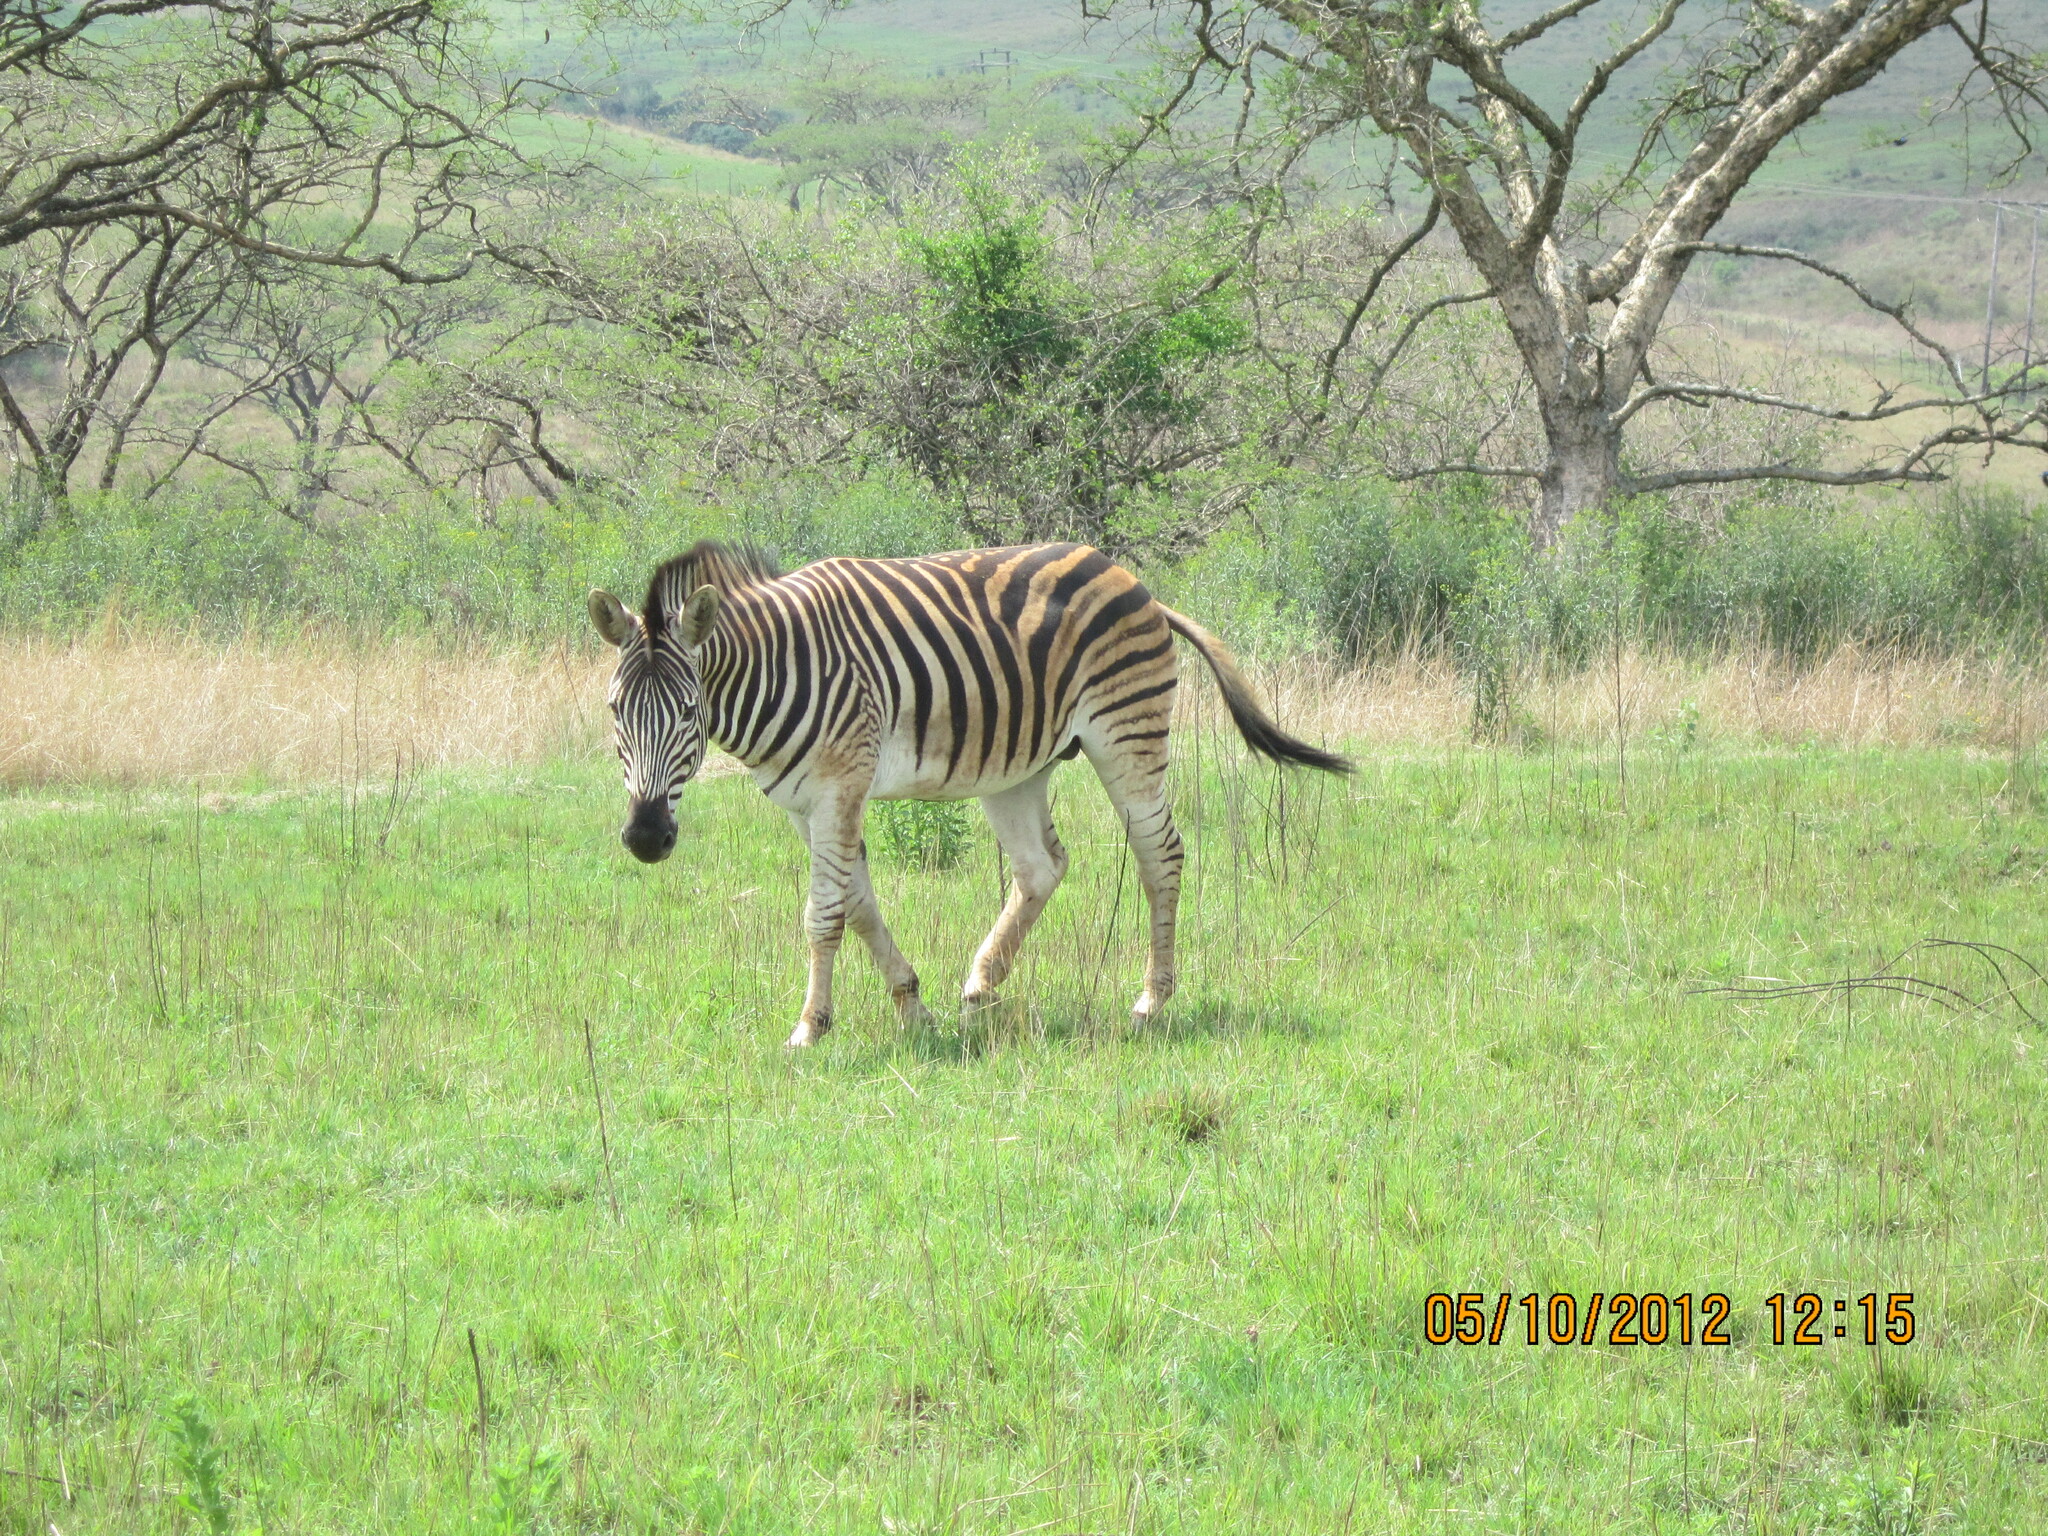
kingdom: Animalia
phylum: Chordata
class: Mammalia
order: Perissodactyla
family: Equidae
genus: Equus
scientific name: Equus quagga
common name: Plains zebra
